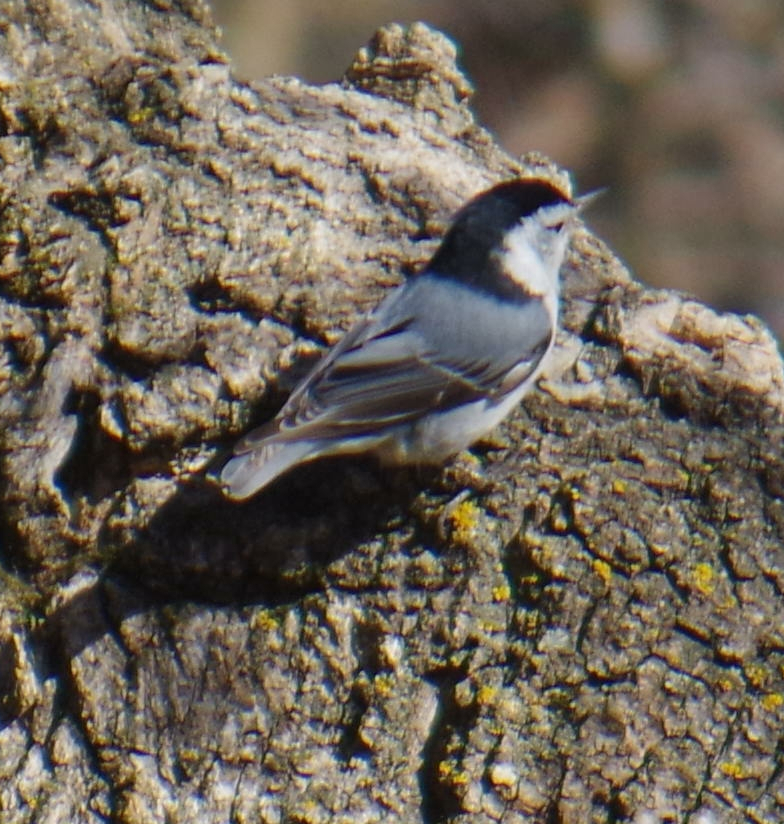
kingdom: Animalia
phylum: Chordata
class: Aves
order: Passeriformes
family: Sittidae
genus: Sitta
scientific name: Sitta carolinensis
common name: White-breasted nuthatch
